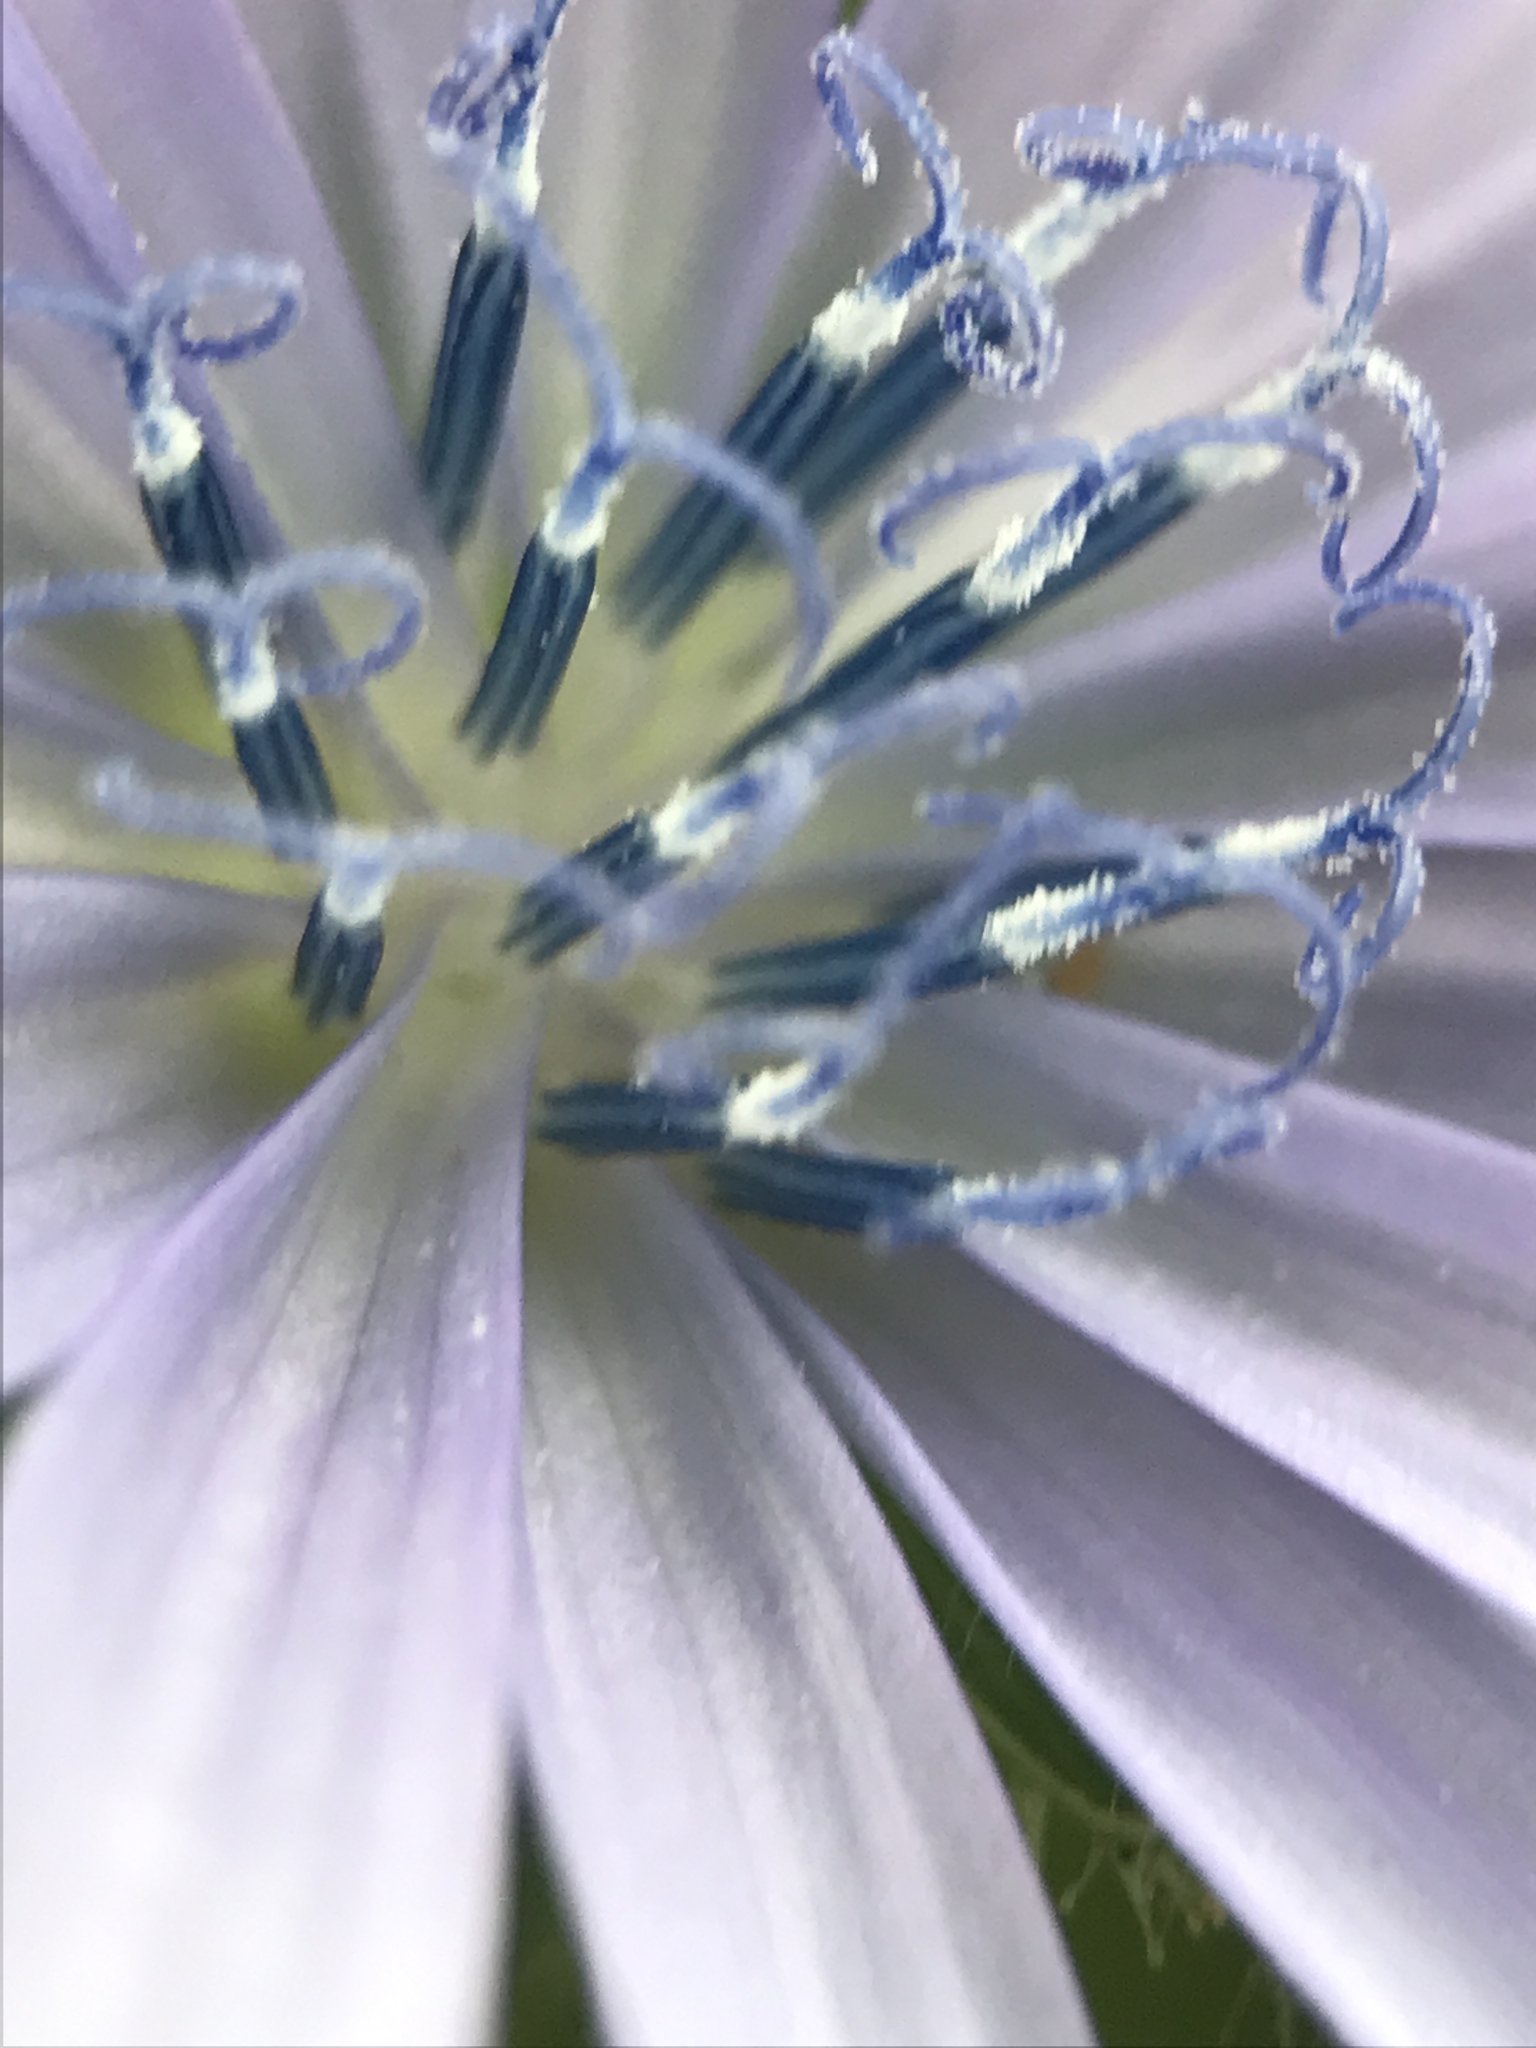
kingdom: Plantae
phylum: Tracheophyta
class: Magnoliopsida
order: Asterales
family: Asteraceae
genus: Cichorium
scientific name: Cichorium intybus
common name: Chicory
